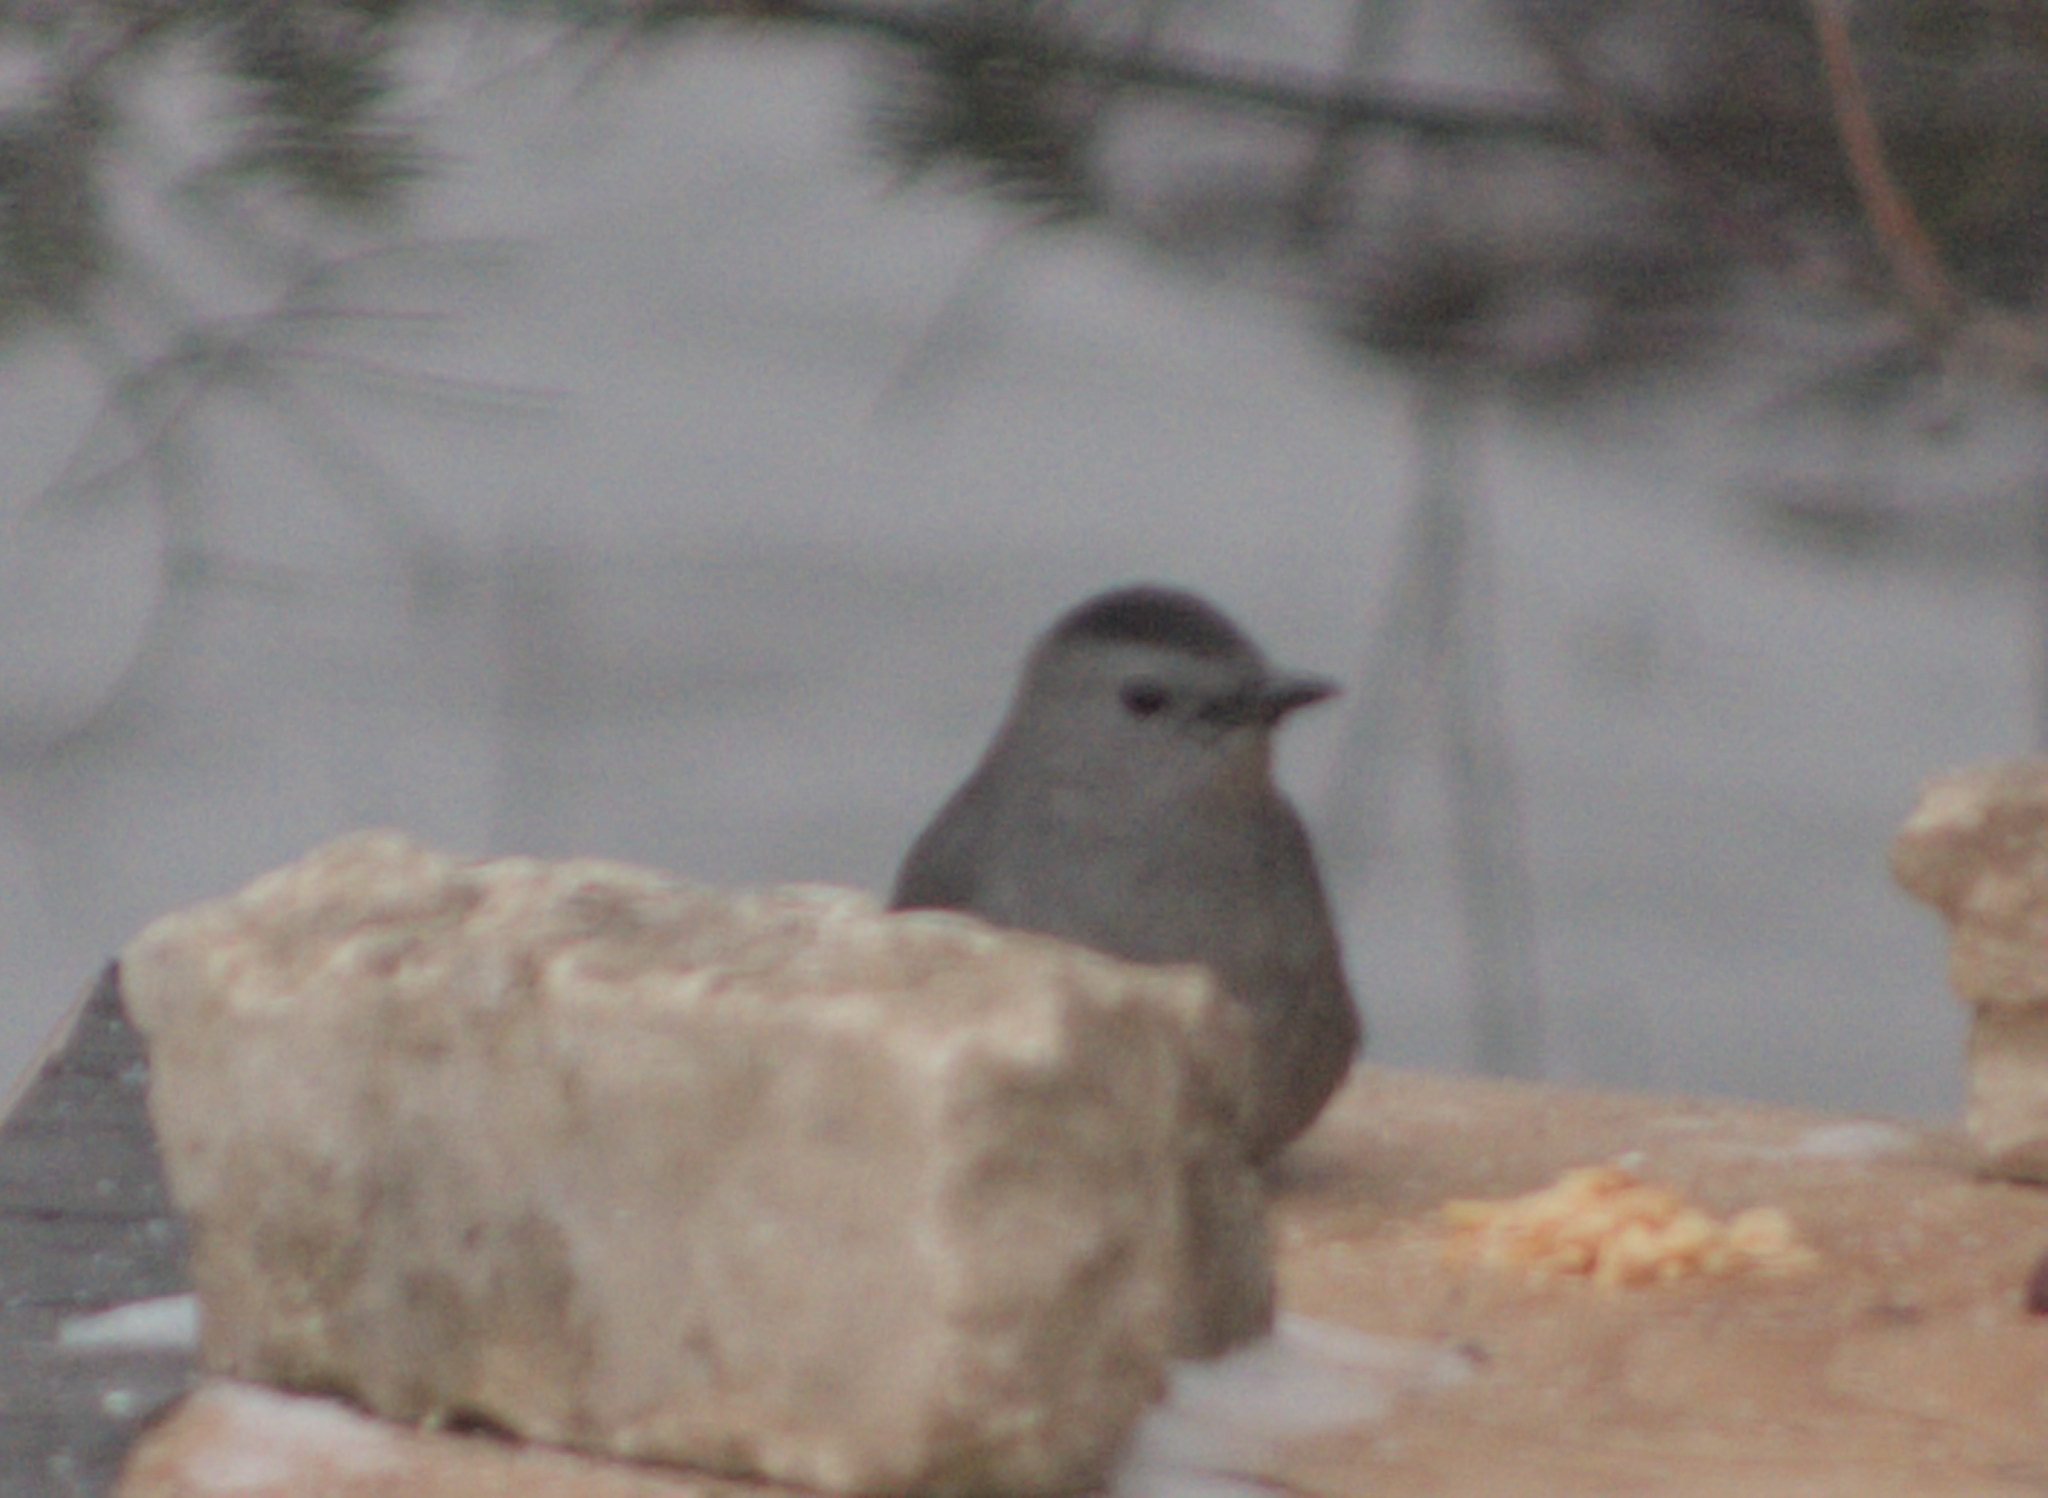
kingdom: Animalia
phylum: Chordata
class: Aves
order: Passeriformes
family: Mimidae
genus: Dumetella
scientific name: Dumetella carolinensis
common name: Gray catbird
